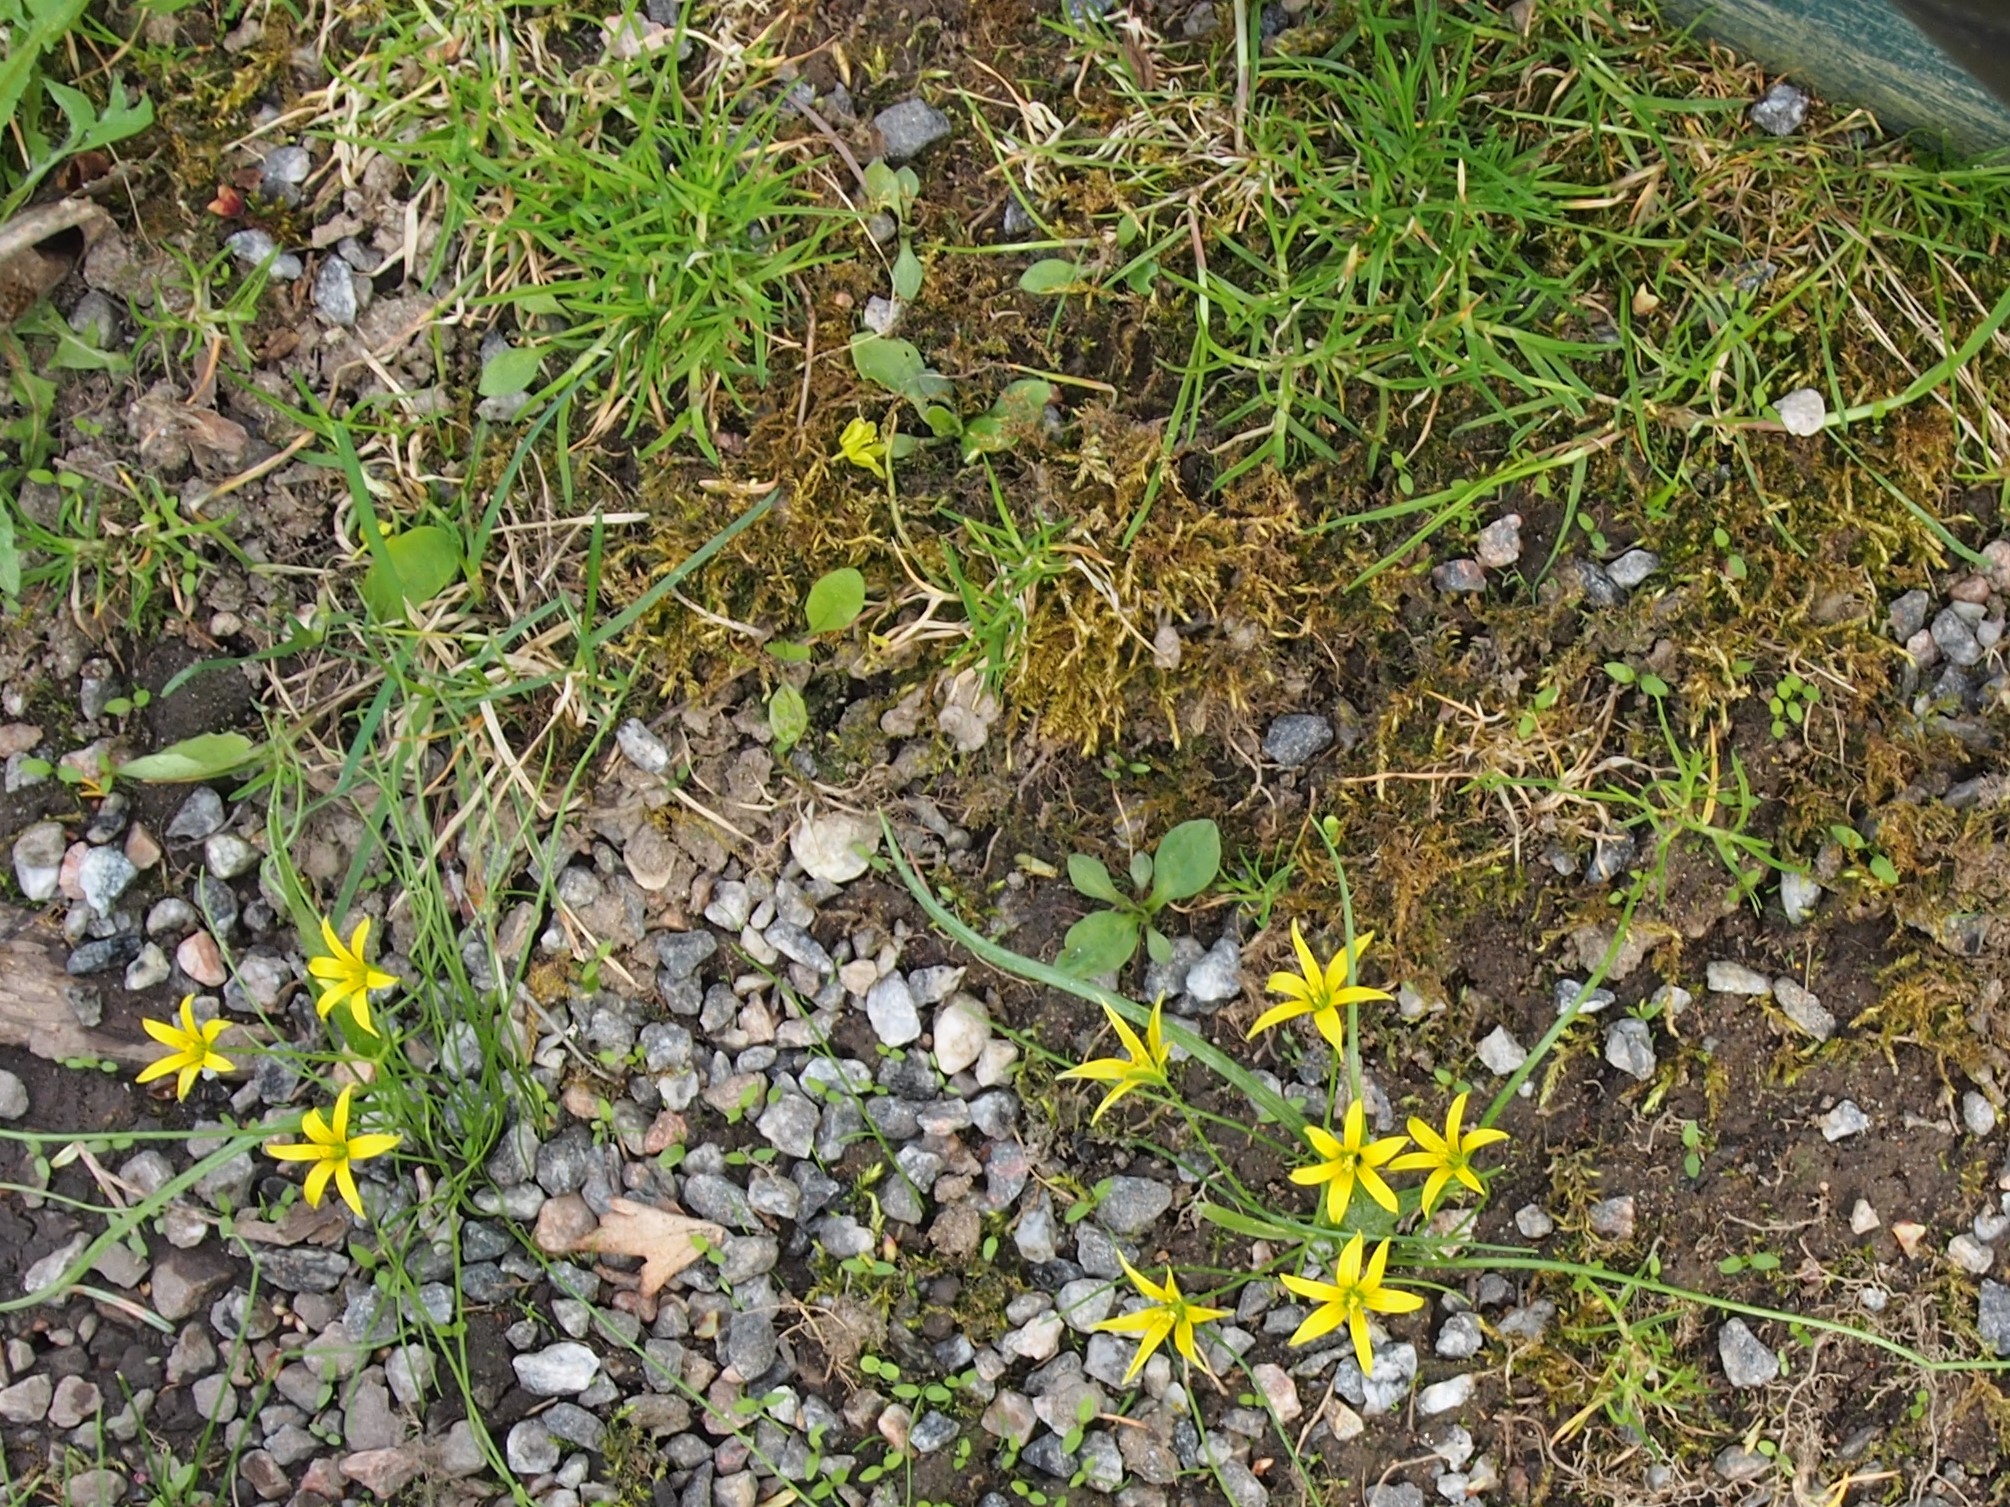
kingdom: Plantae
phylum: Tracheophyta
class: Liliopsida
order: Liliales
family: Liliaceae
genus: Gagea
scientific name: Gagea lutea
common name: Yellow star-of-bethlehem
